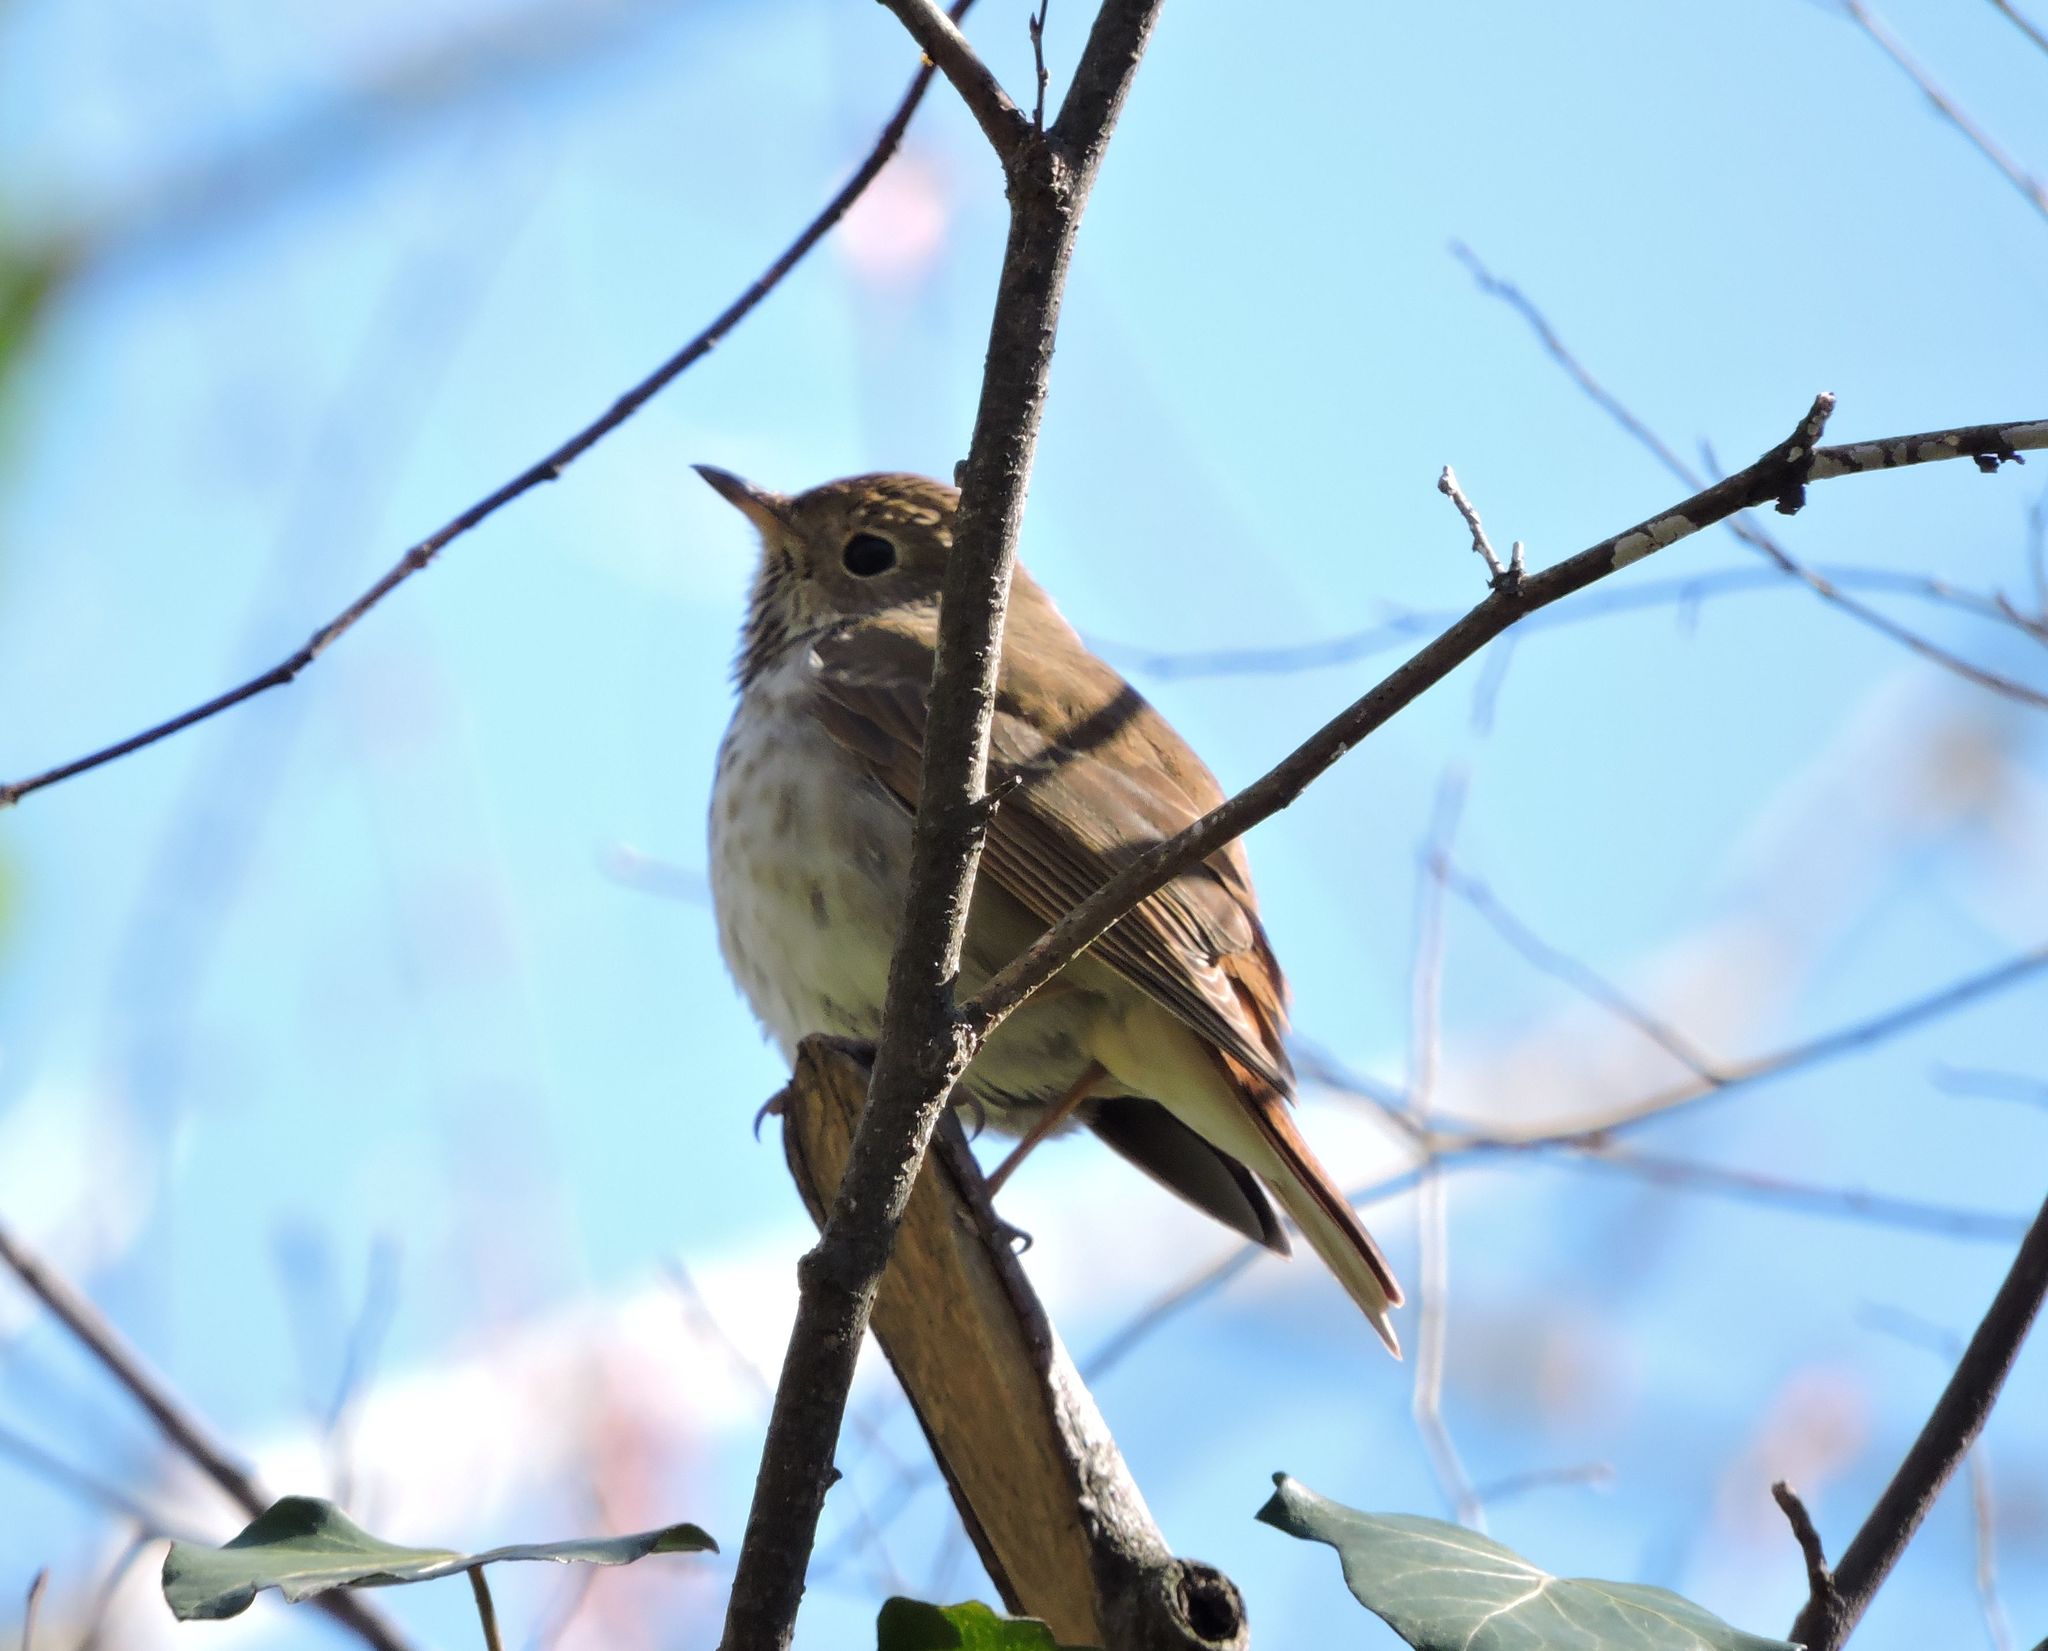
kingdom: Animalia
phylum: Chordata
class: Aves
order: Passeriformes
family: Turdidae
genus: Catharus
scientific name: Catharus guttatus
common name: Hermit thrush
